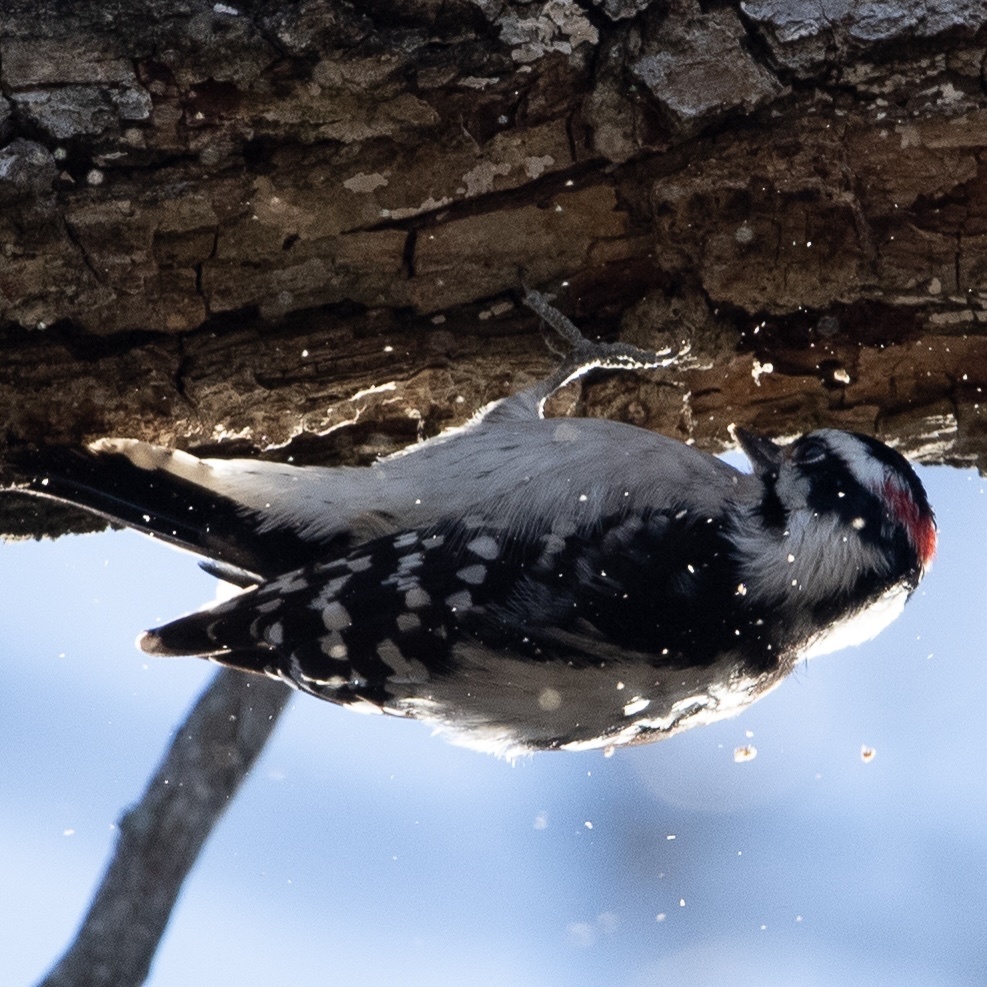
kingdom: Animalia
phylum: Chordata
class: Aves
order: Piciformes
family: Picidae
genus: Dryobates
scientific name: Dryobates pubescens
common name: Downy woodpecker
